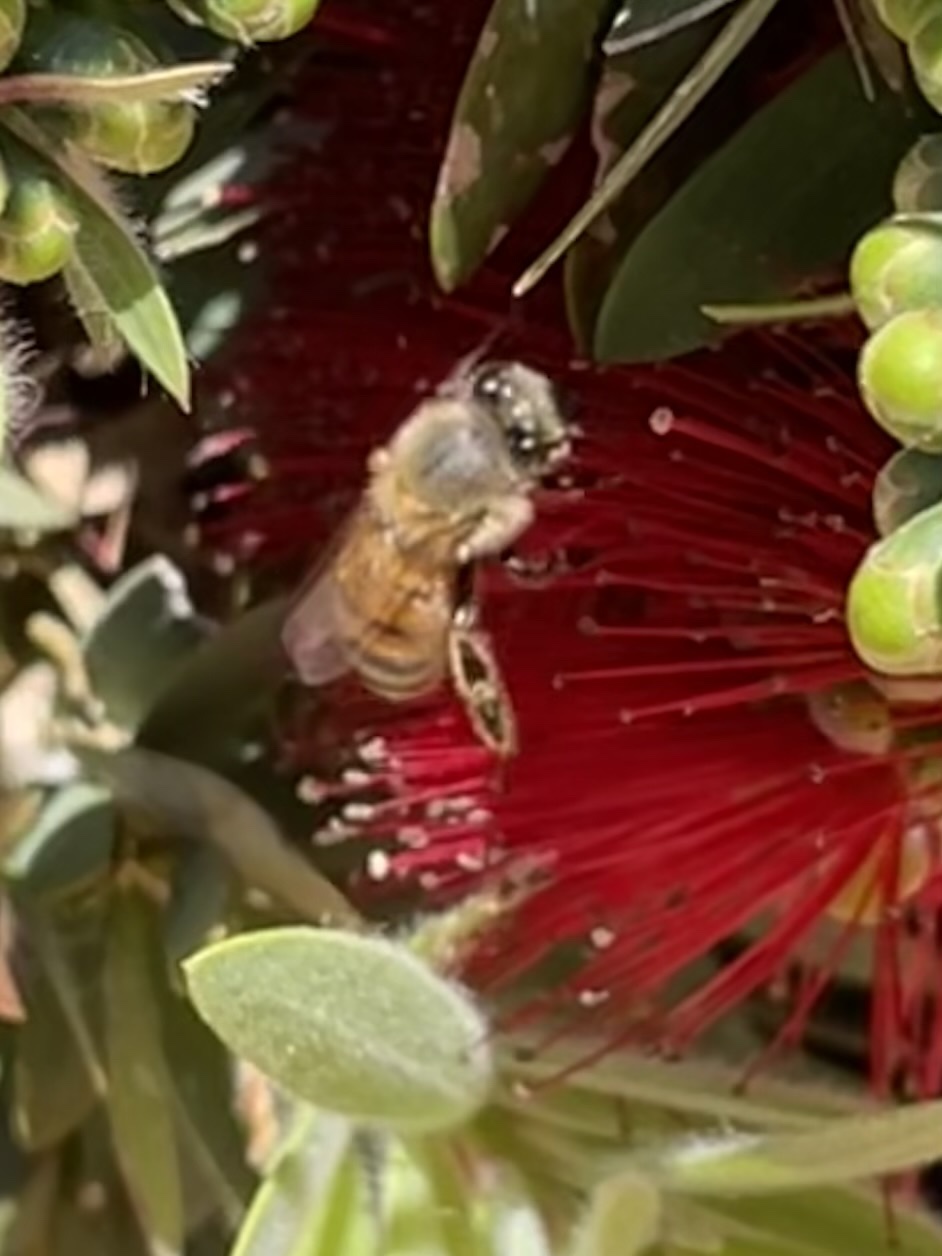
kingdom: Animalia
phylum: Arthropoda
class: Insecta
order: Hymenoptera
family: Apidae
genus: Apis
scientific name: Apis mellifera
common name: Honey bee
